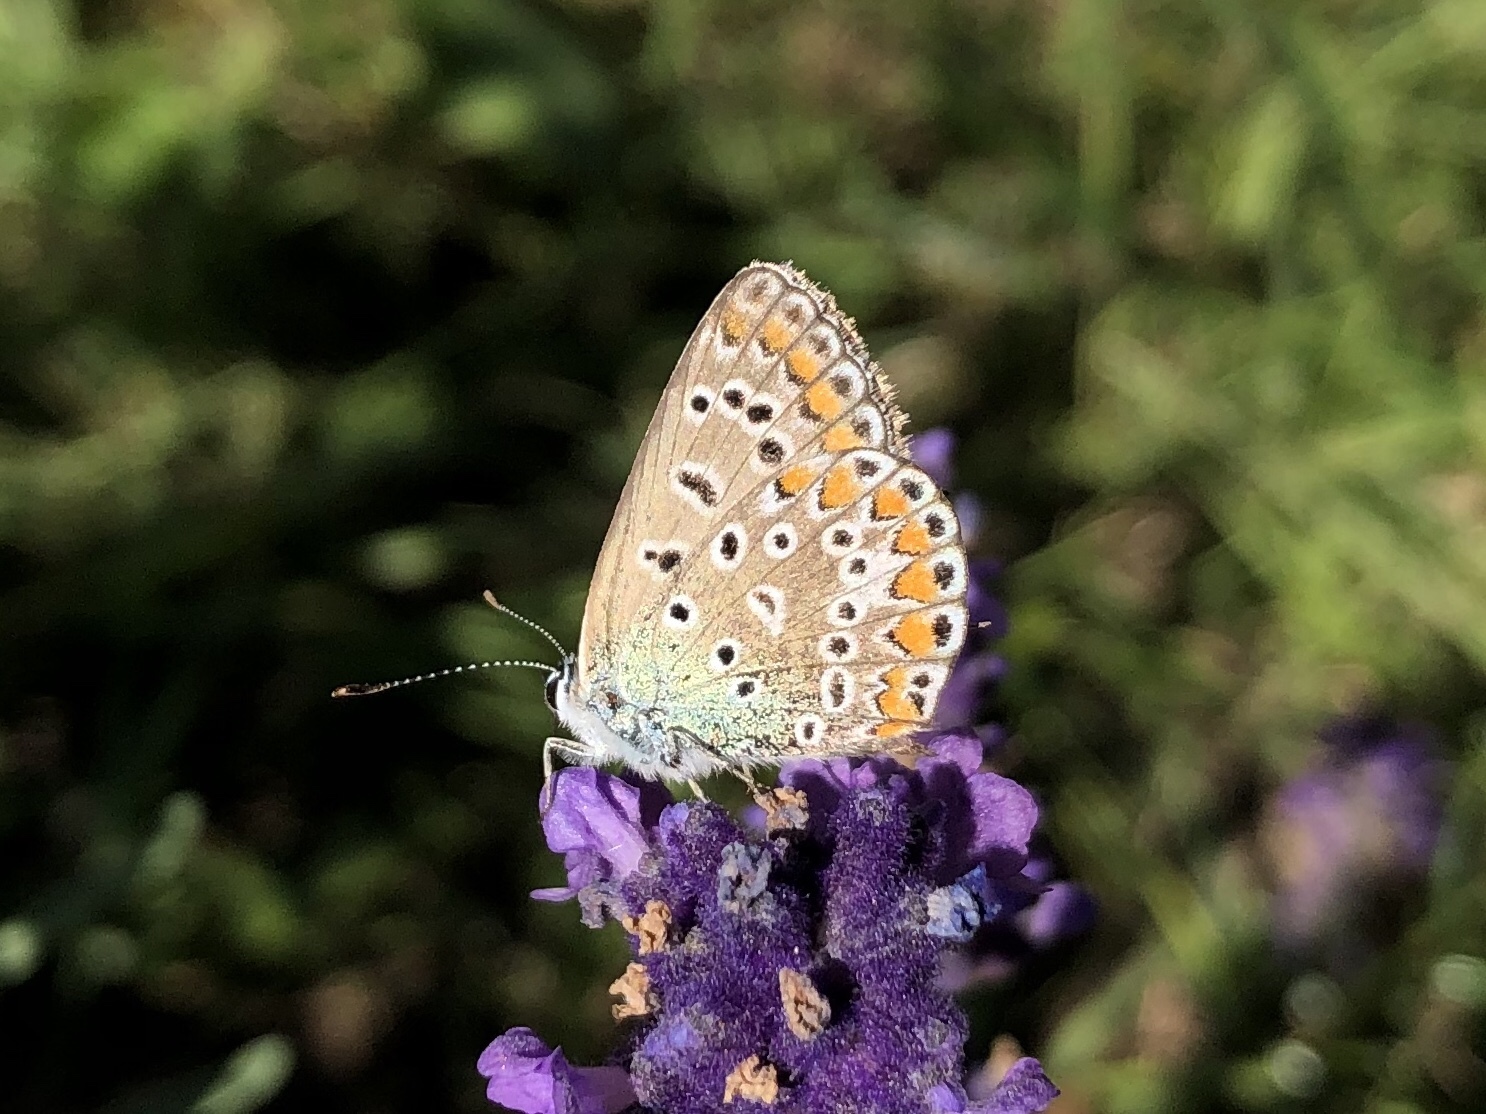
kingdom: Animalia
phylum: Arthropoda
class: Insecta
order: Lepidoptera
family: Lycaenidae
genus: Polyommatus
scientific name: Polyommatus icarus
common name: Common blue
